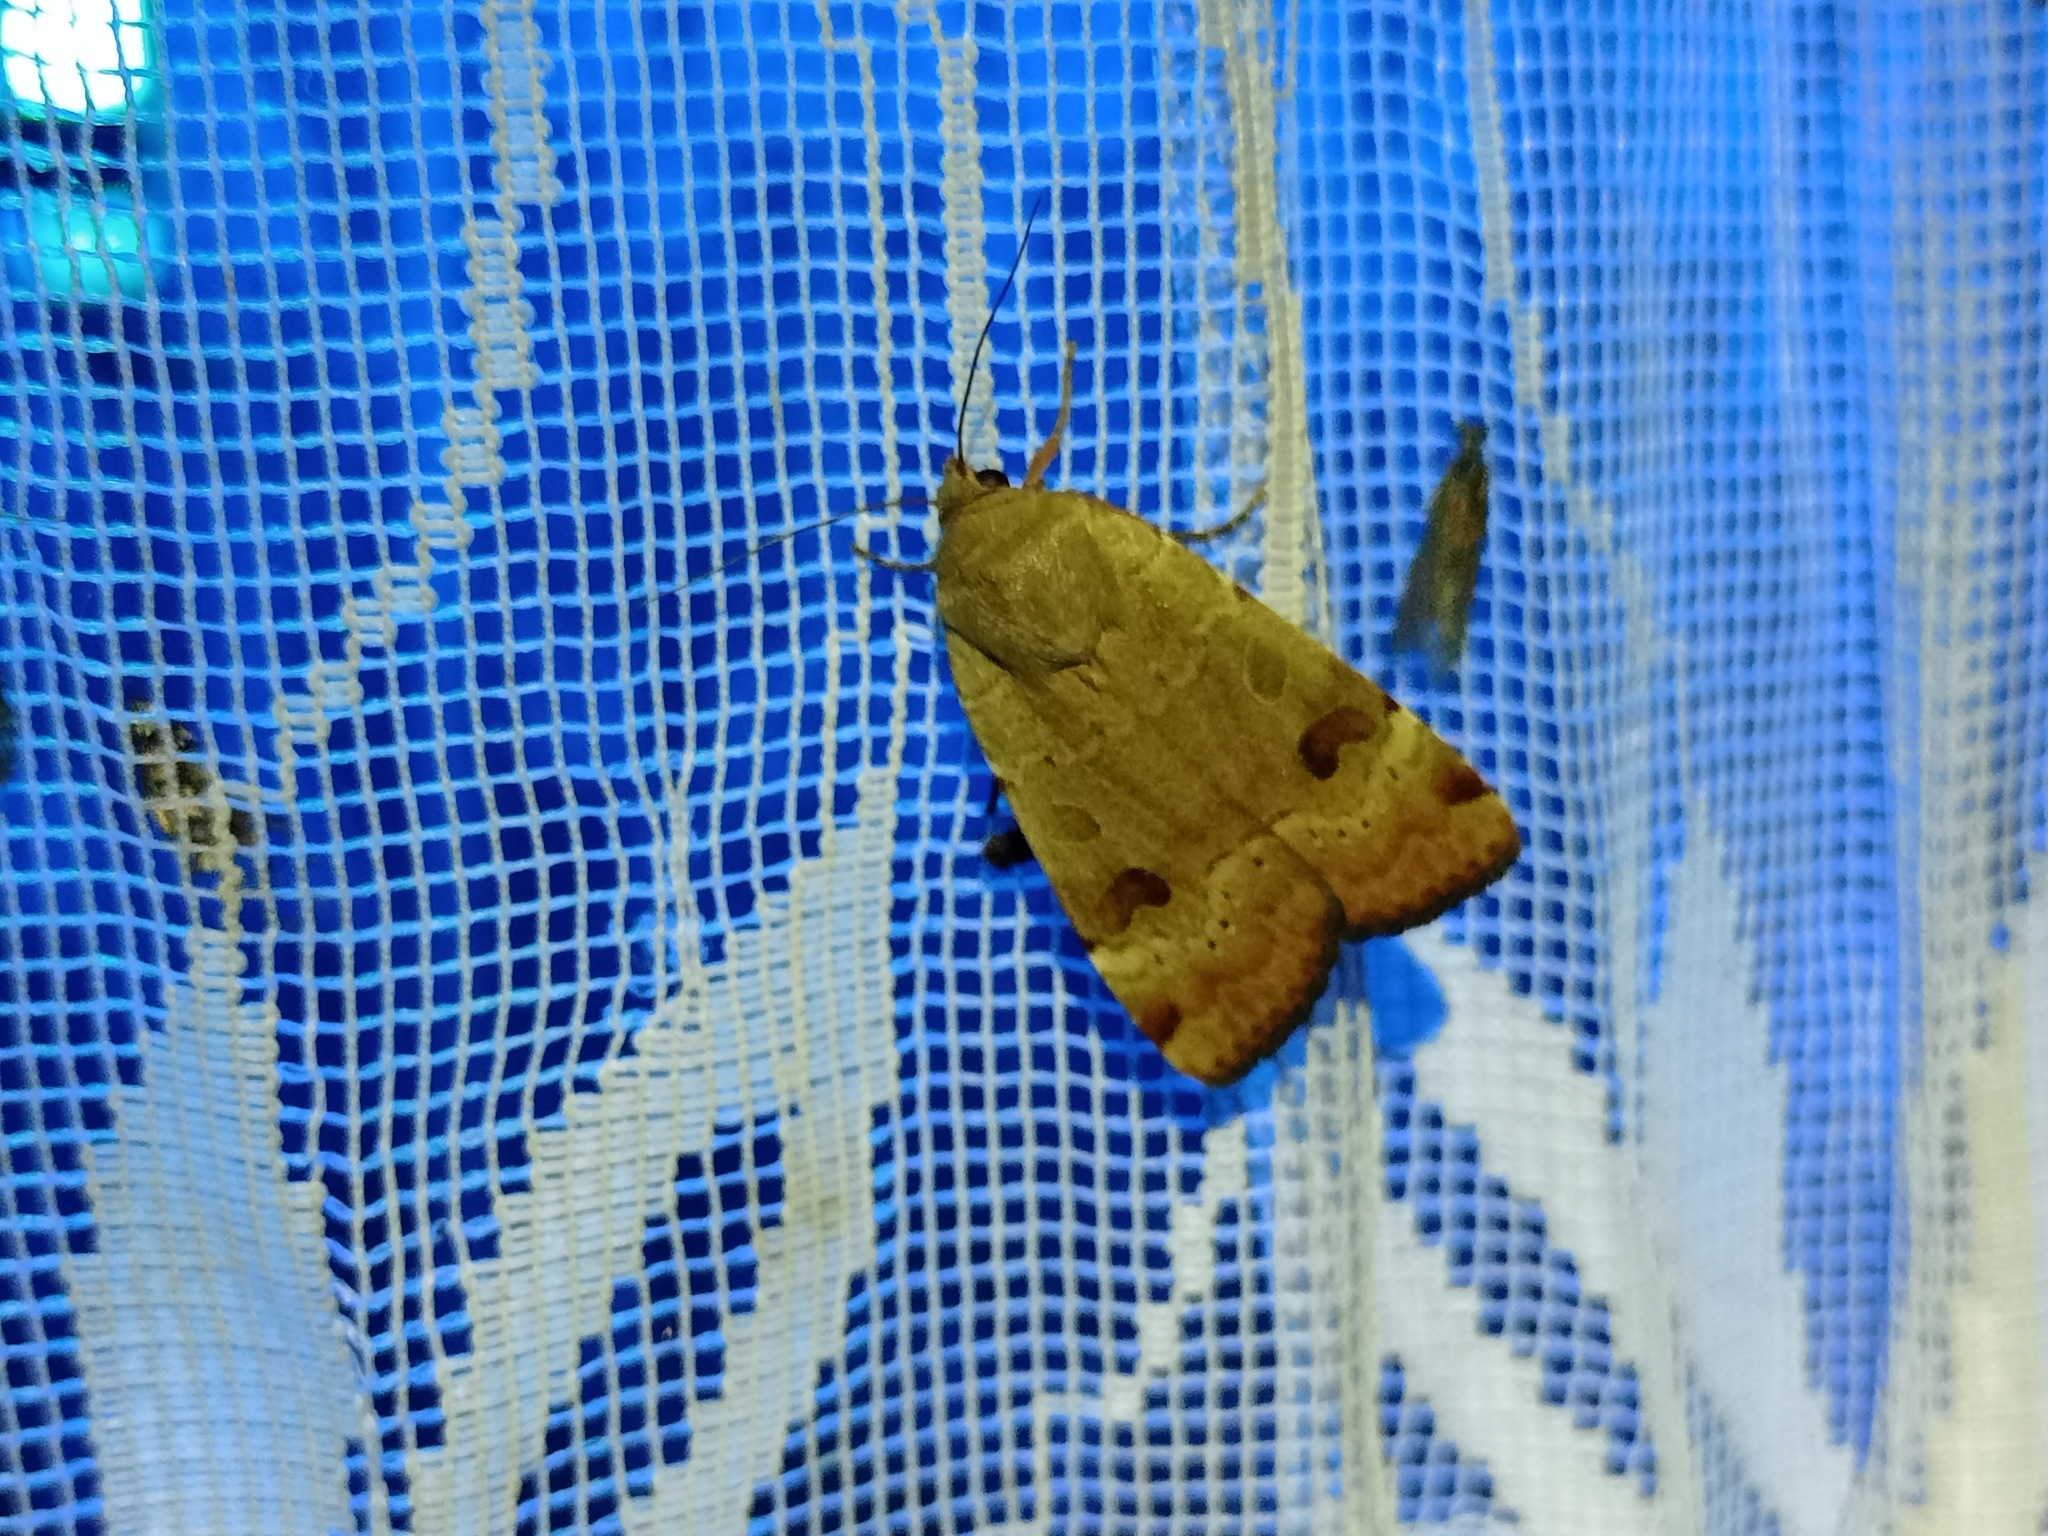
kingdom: Animalia
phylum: Arthropoda
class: Insecta
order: Lepidoptera
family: Noctuidae
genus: Noctua
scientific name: Noctua interposita
